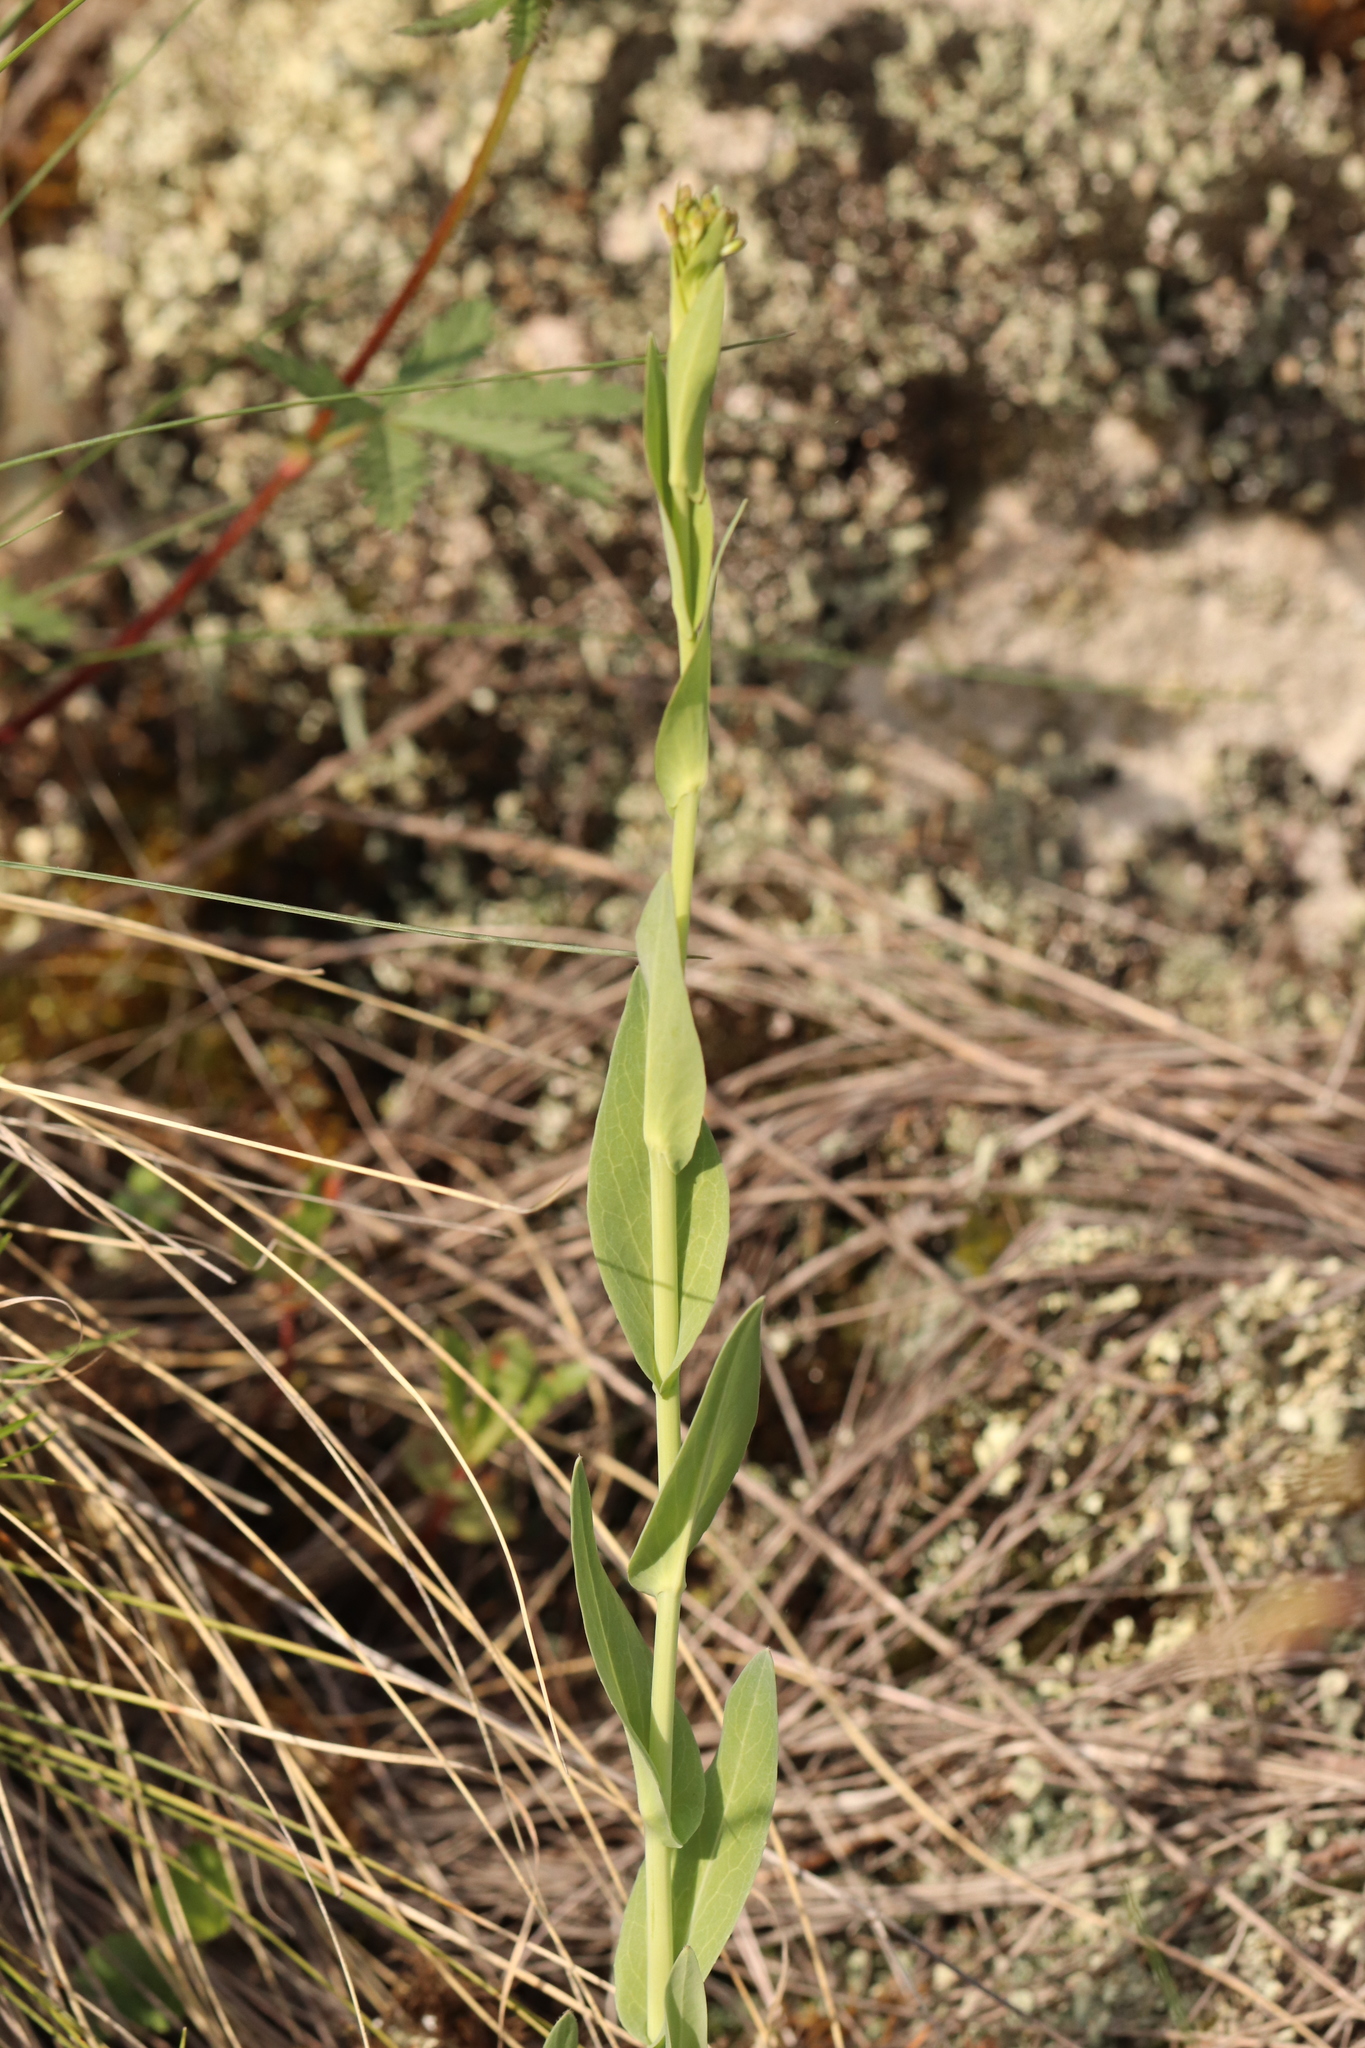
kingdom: Plantae
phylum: Tracheophyta
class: Magnoliopsida
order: Brassicales
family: Brassicaceae
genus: Turritis
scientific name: Turritis glabra
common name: Tower rockcress
